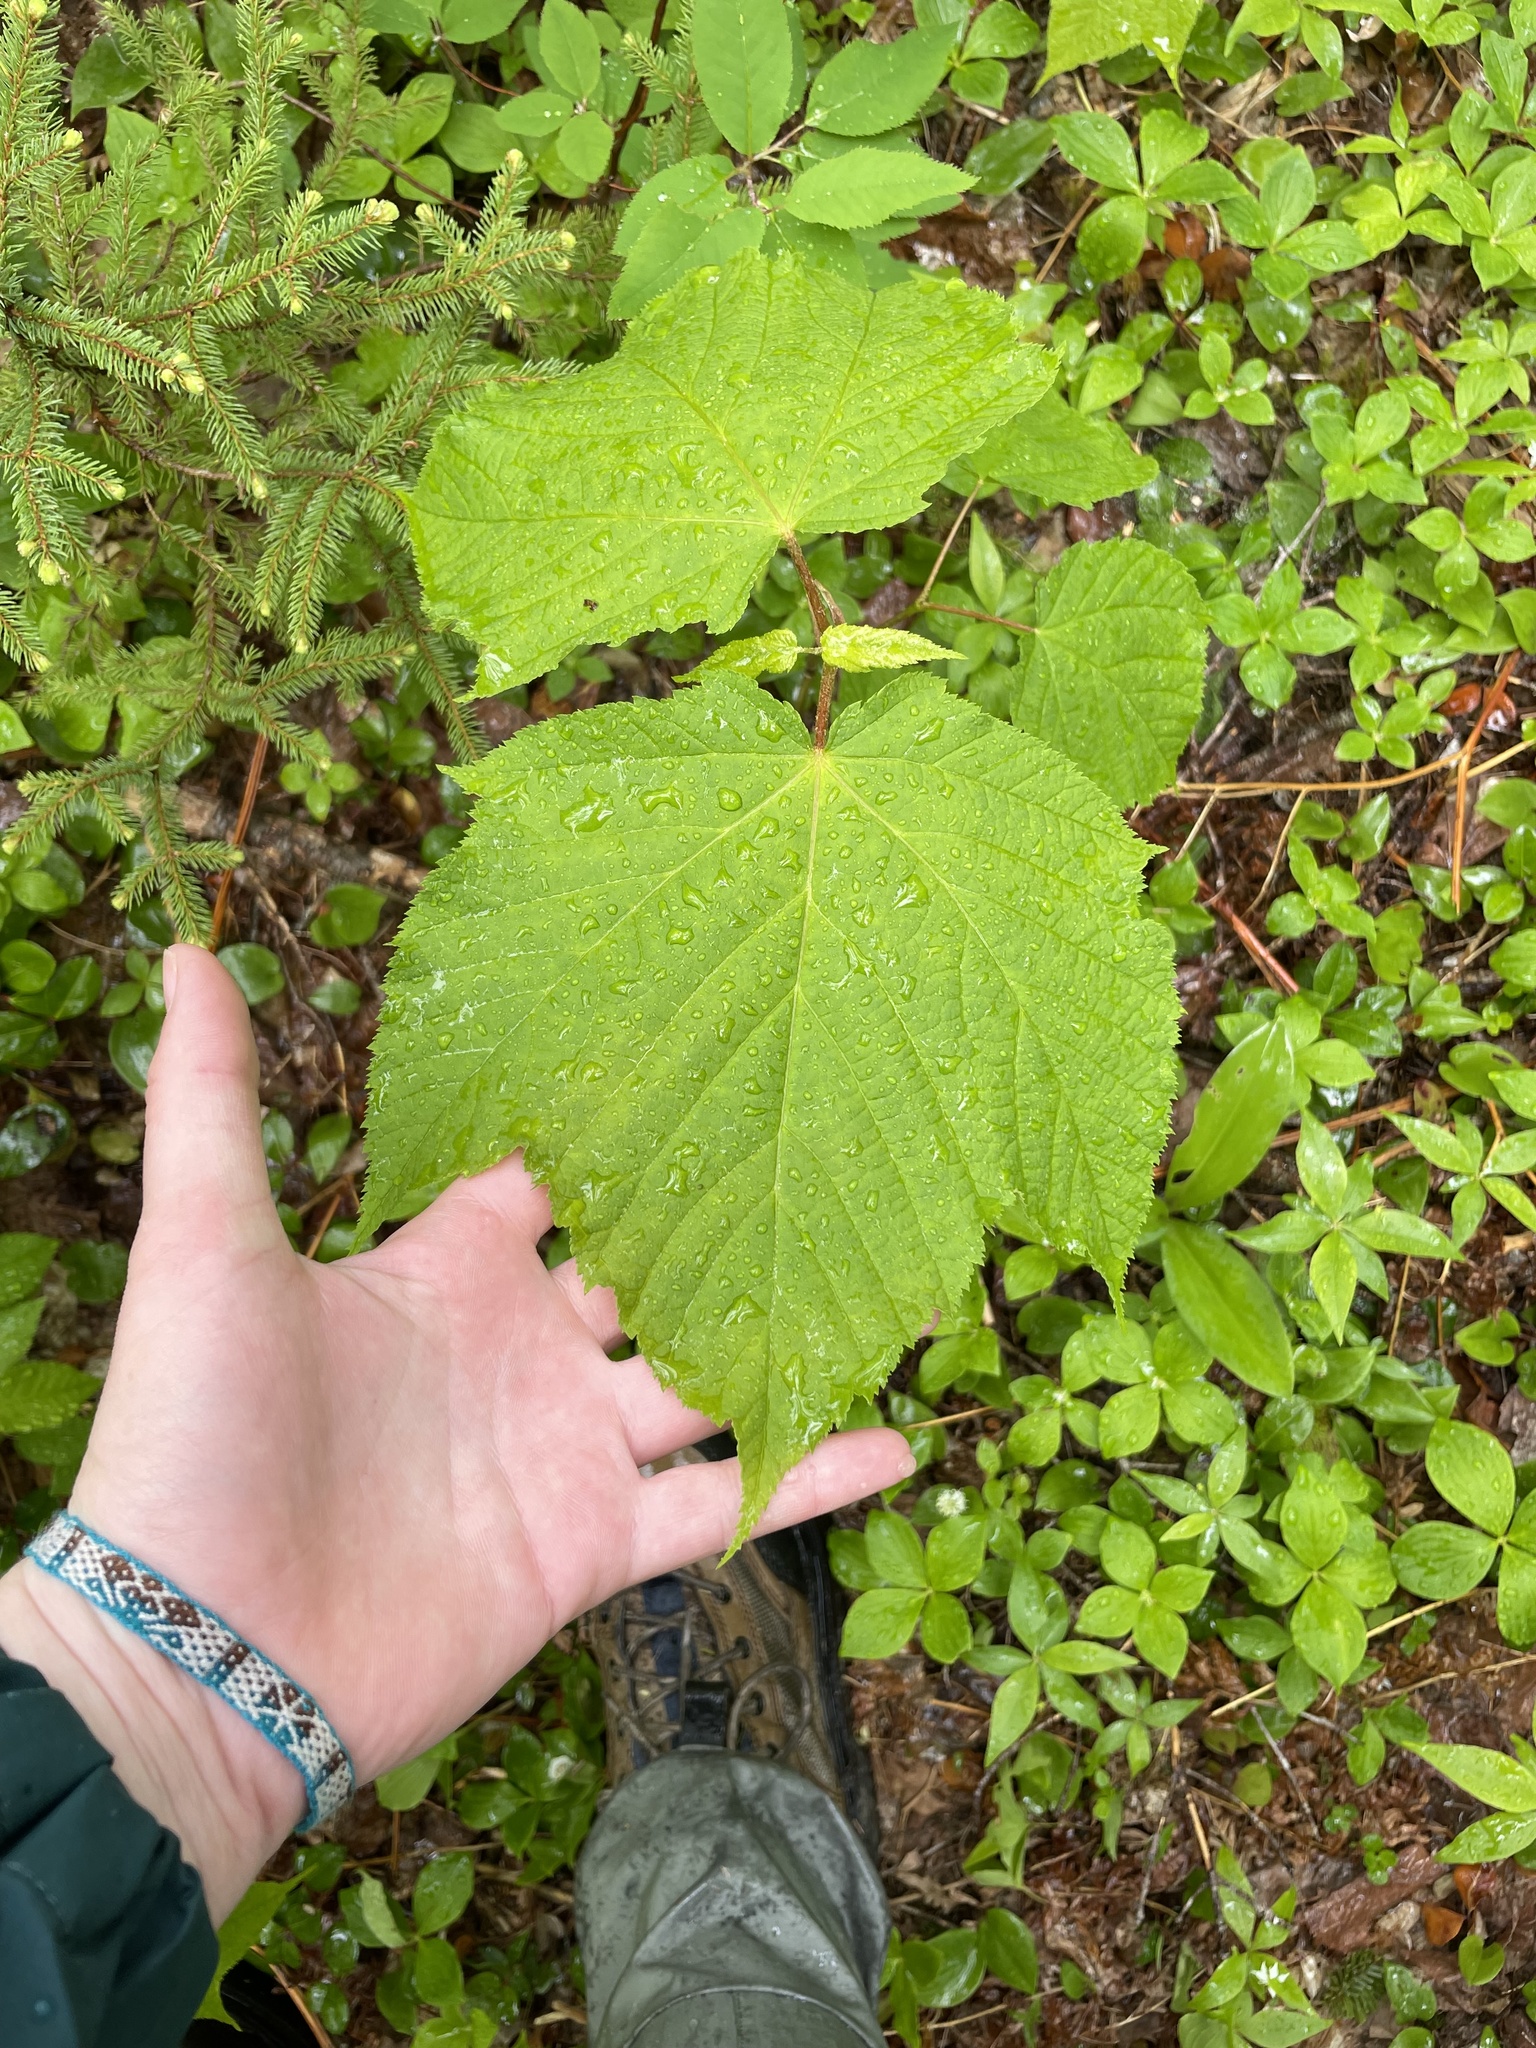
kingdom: Plantae
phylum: Tracheophyta
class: Magnoliopsida
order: Sapindales
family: Sapindaceae
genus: Acer
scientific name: Acer pensylvanicum
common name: Moosewood
